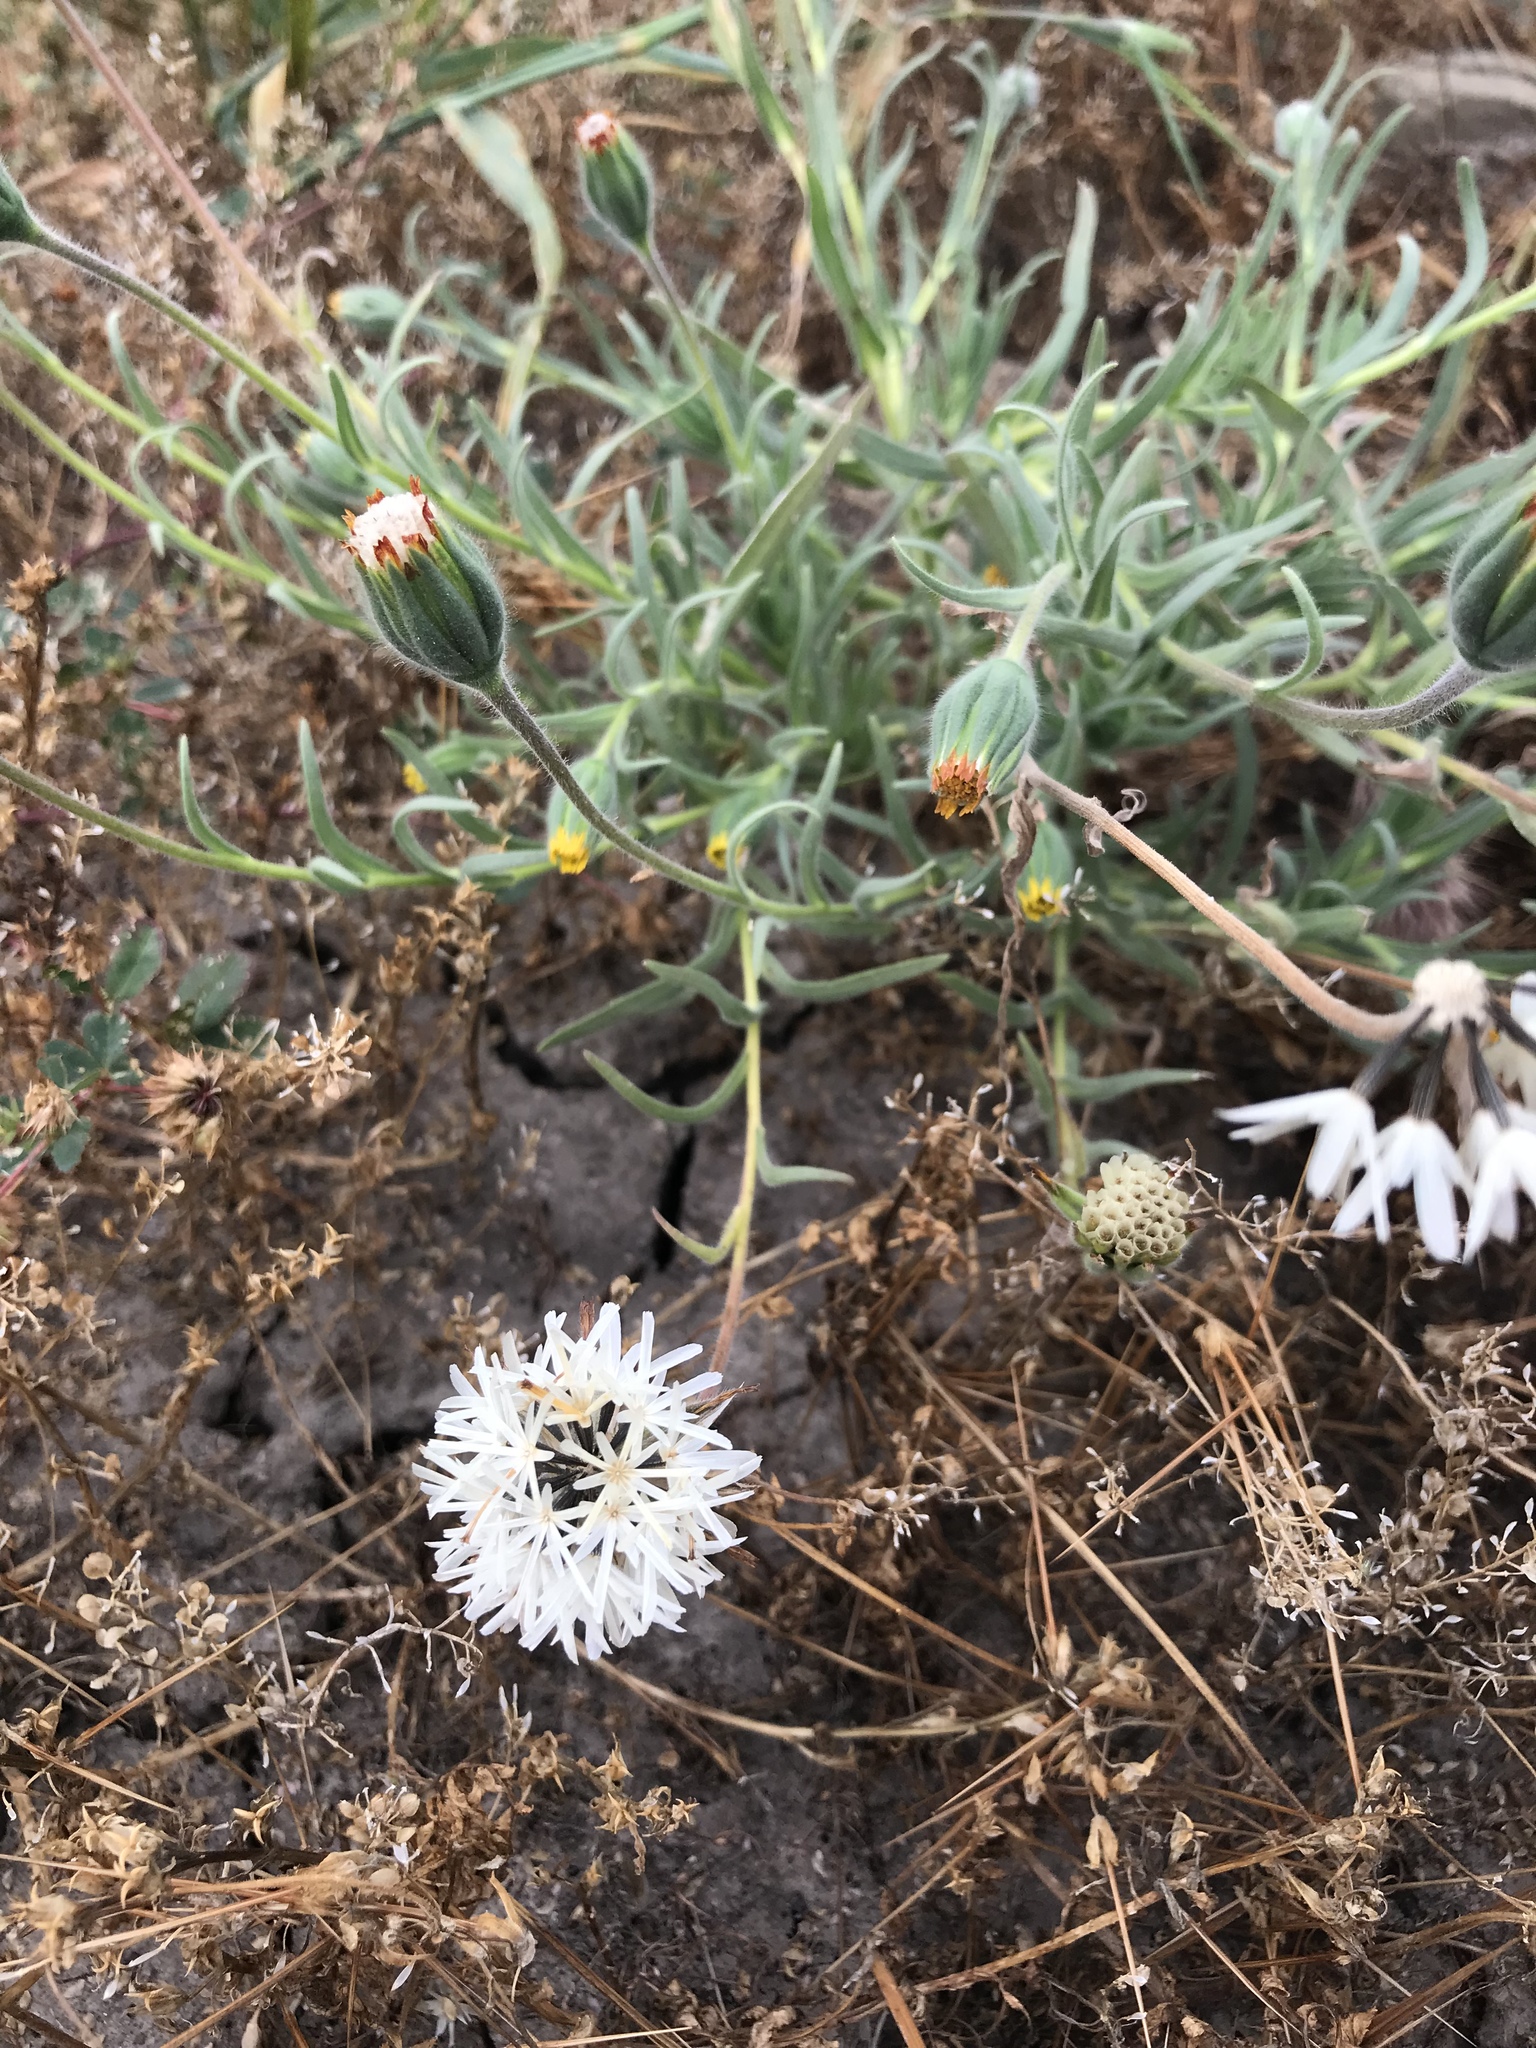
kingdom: Plantae
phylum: Tracheophyta
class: Magnoliopsida
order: Asterales
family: Asteraceae
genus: Achyrachaena
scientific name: Achyrachaena mollis
